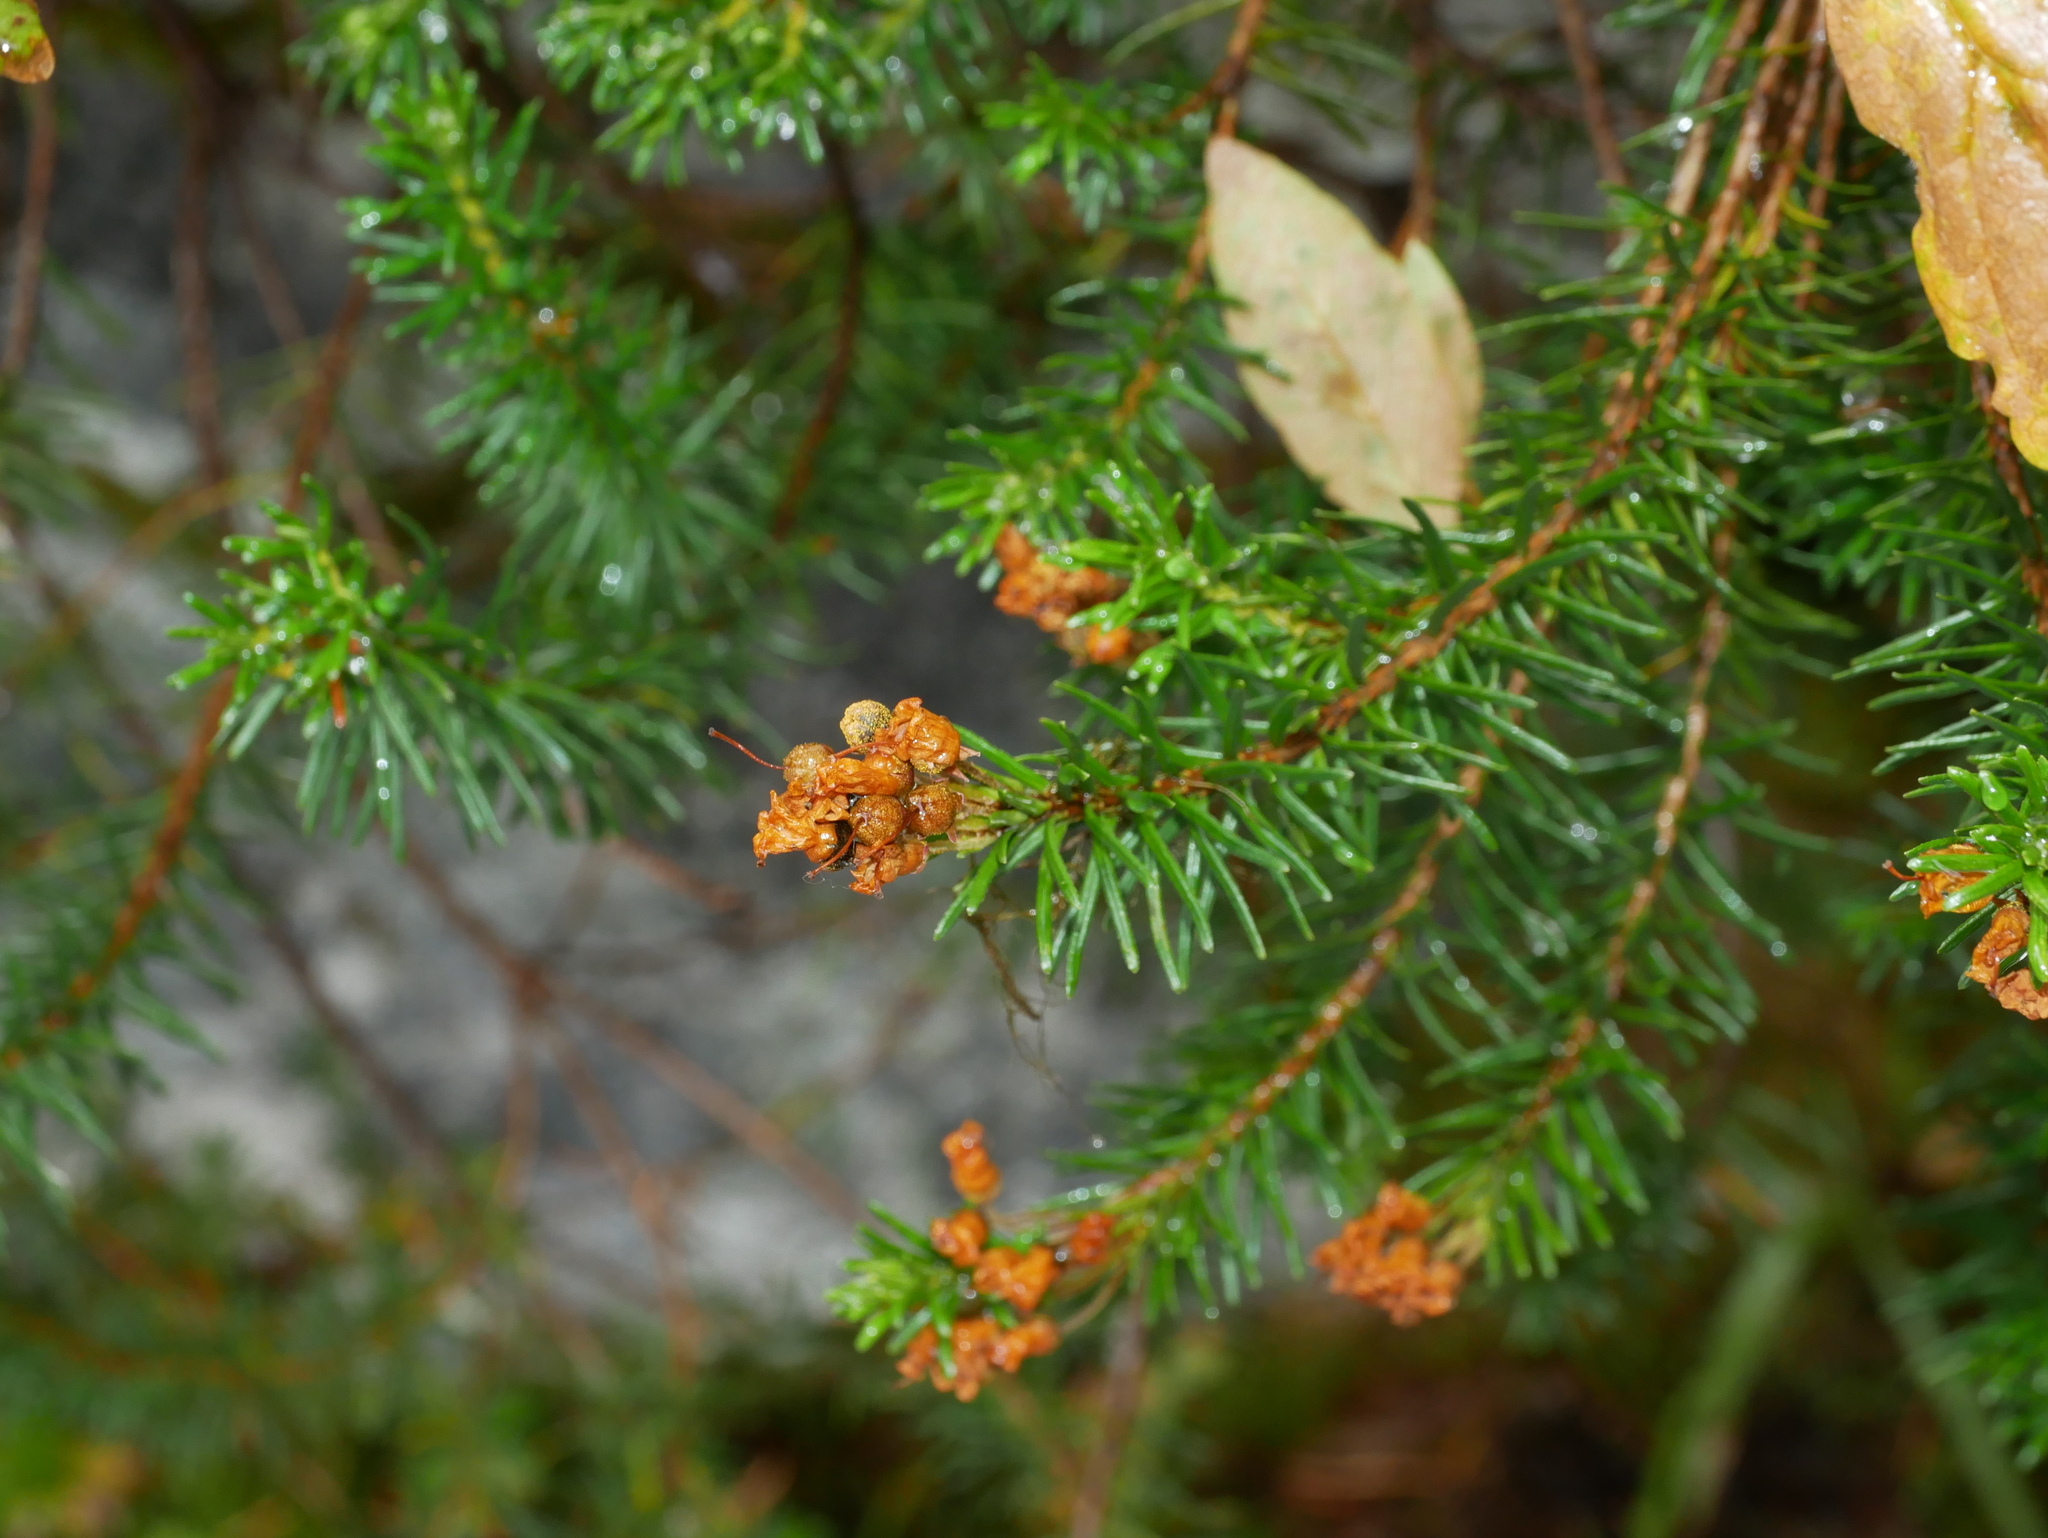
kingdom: Plantae
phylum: Tracheophyta
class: Magnoliopsida
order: Ericales
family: Ericaceae
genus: Phyllodoce
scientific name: Phyllodoce empetriformis
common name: Pink mountain heather
